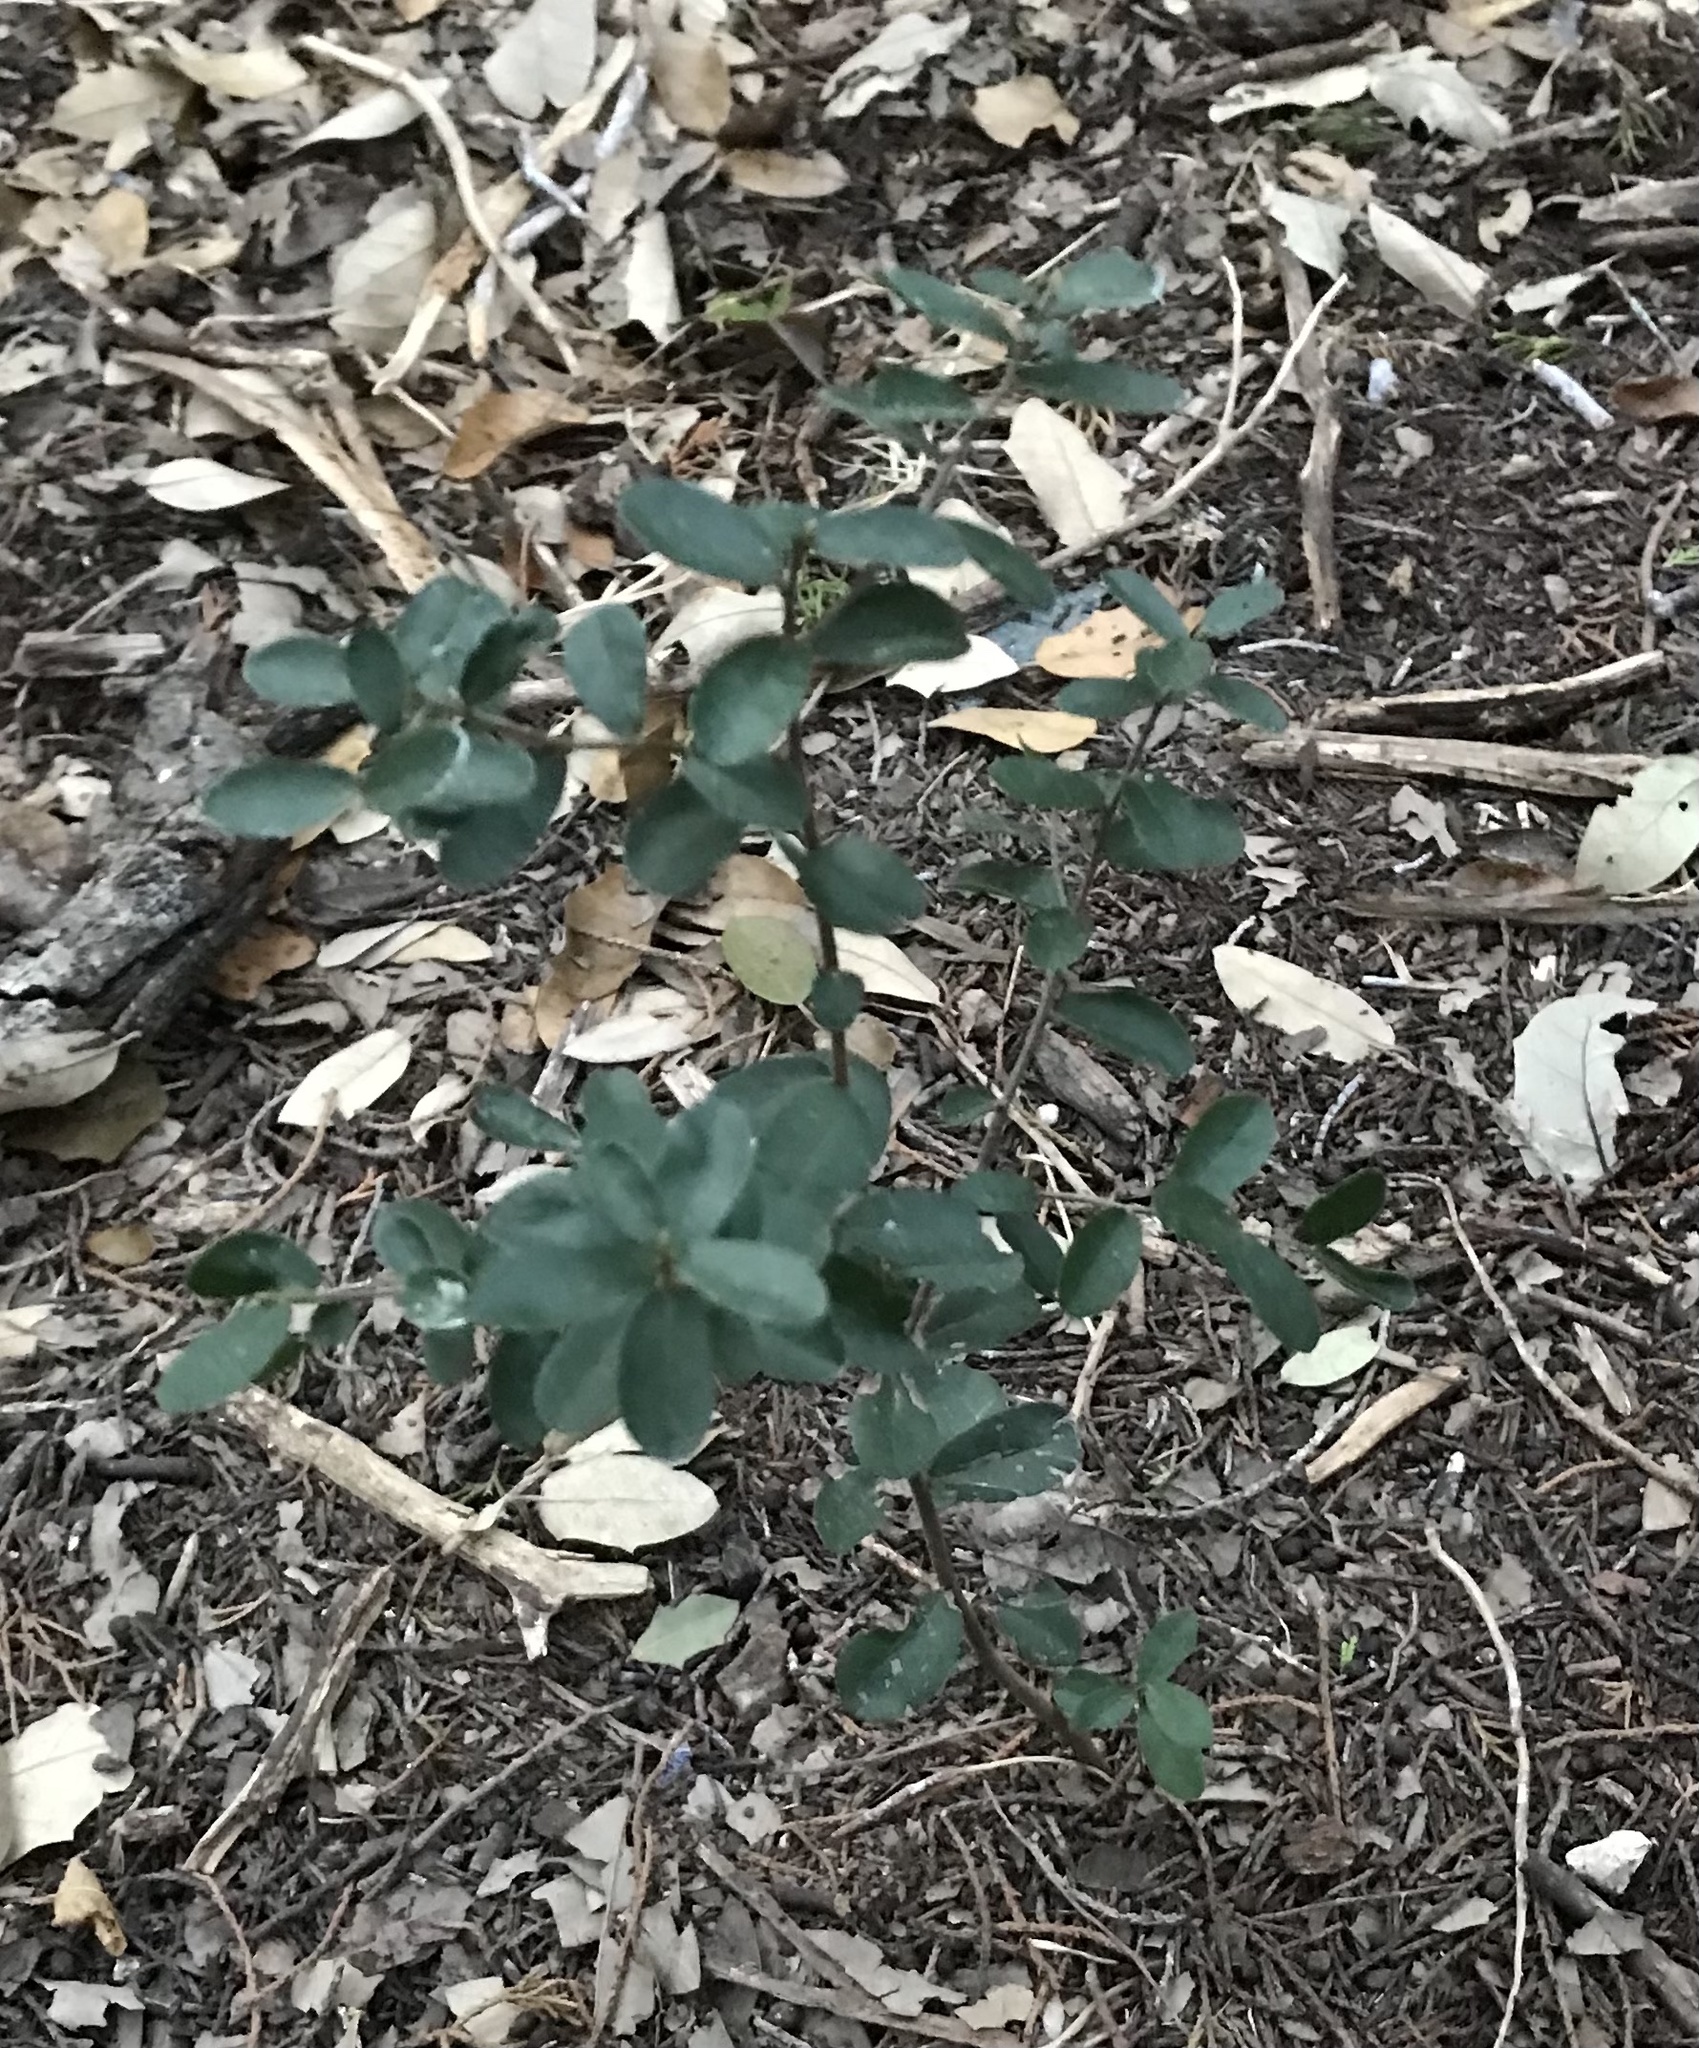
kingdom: Plantae
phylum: Tracheophyta
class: Magnoliopsida
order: Ericales
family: Ebenaceae
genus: Diospyros
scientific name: Diospyros texana
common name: Texas persimmon
